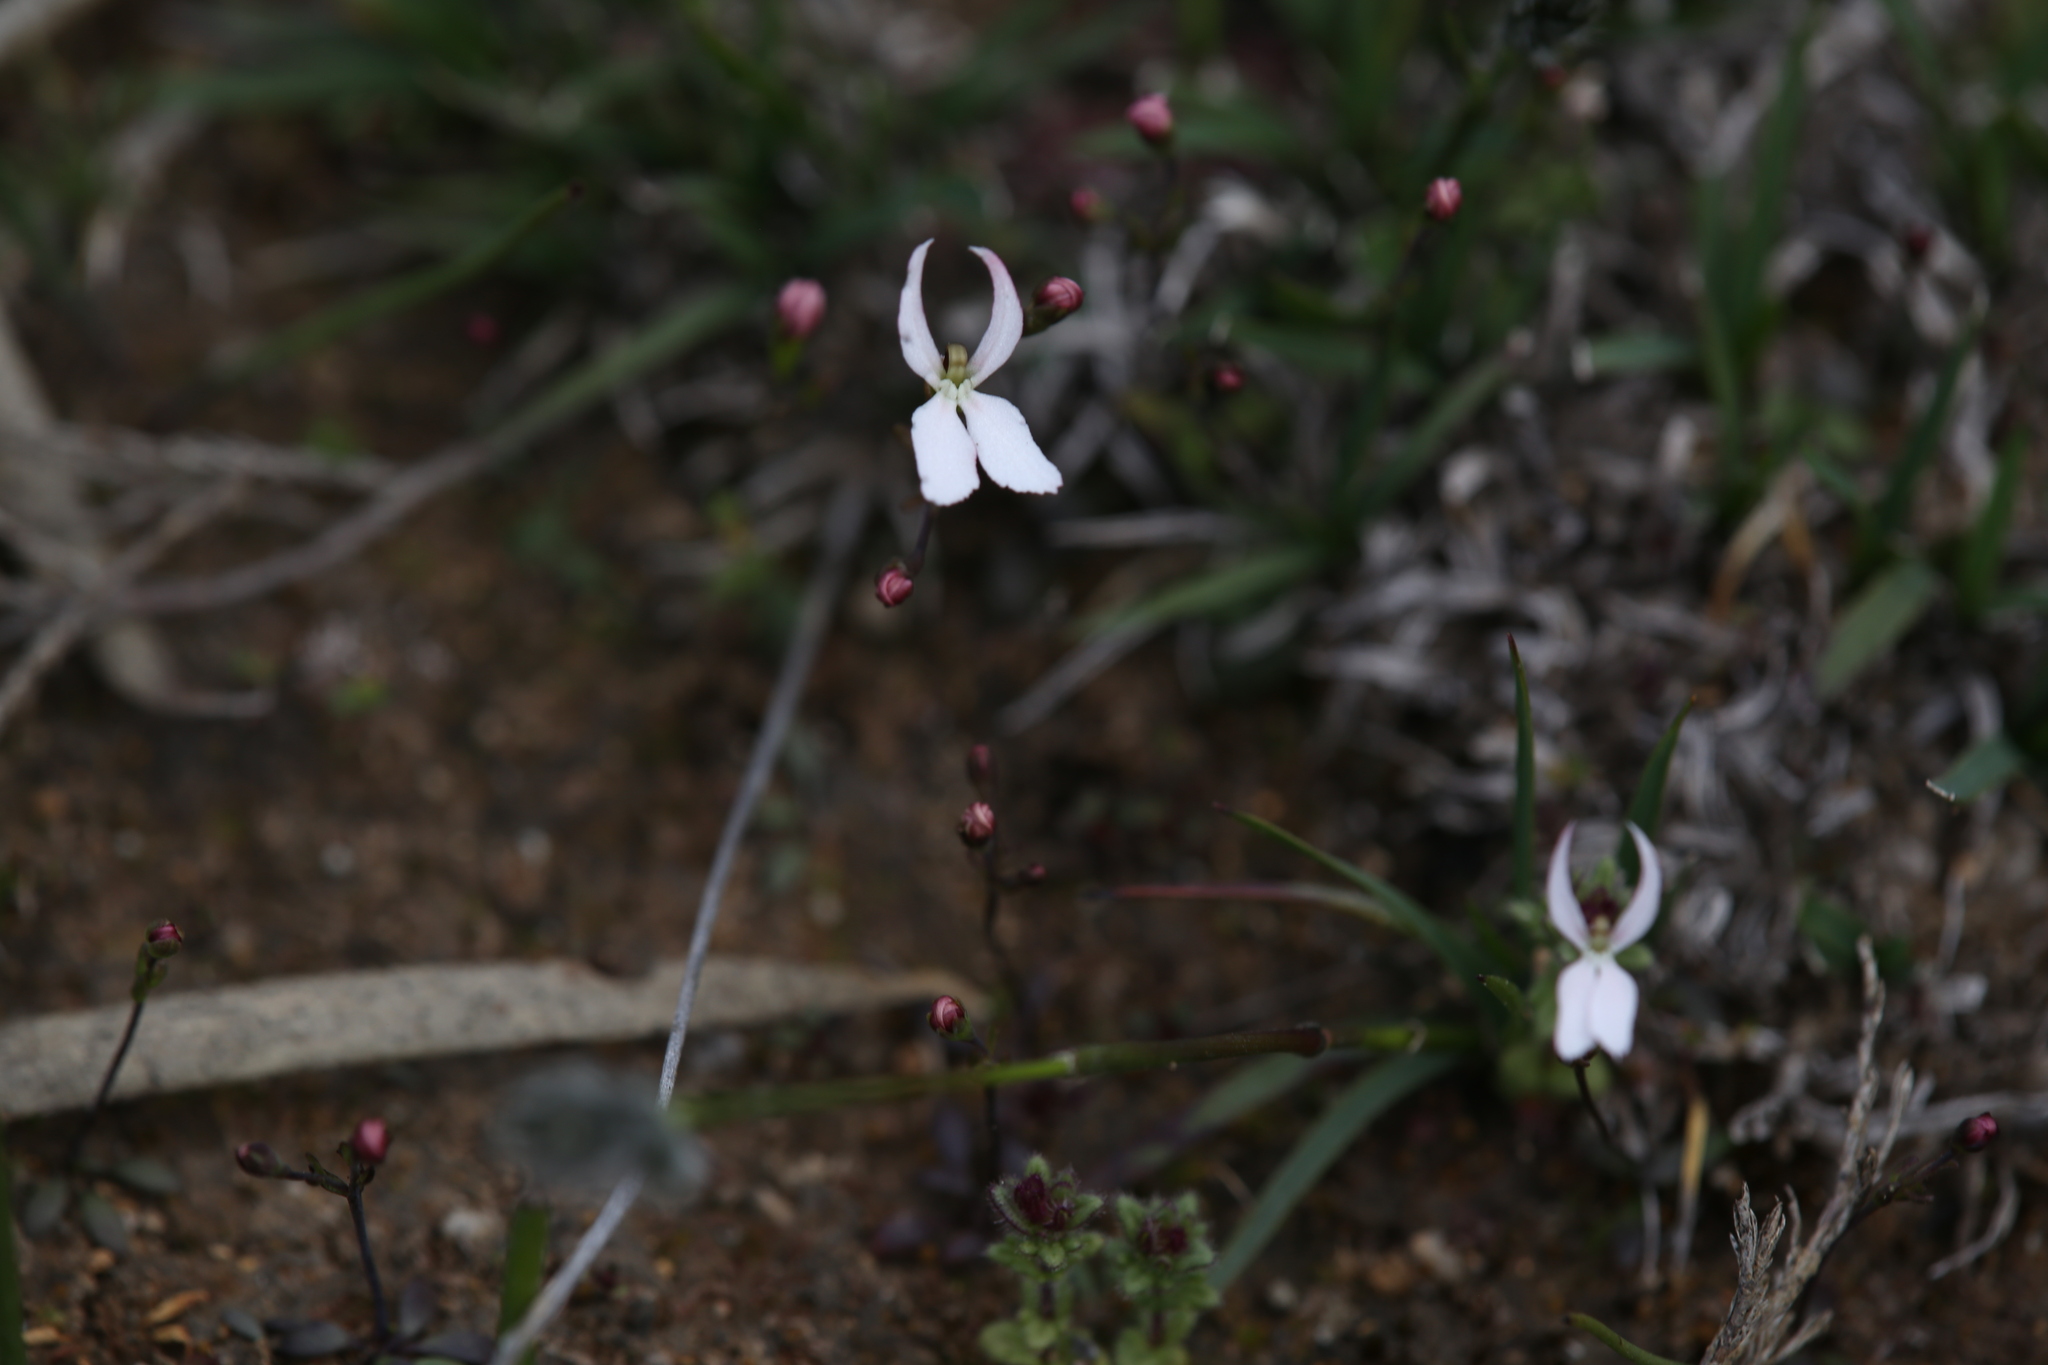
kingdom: Plantae
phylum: Tracheophyta
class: Magnoliopsida
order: Asterales
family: Stylidiaceae
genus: Stylidium
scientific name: Stylidium petiolare
